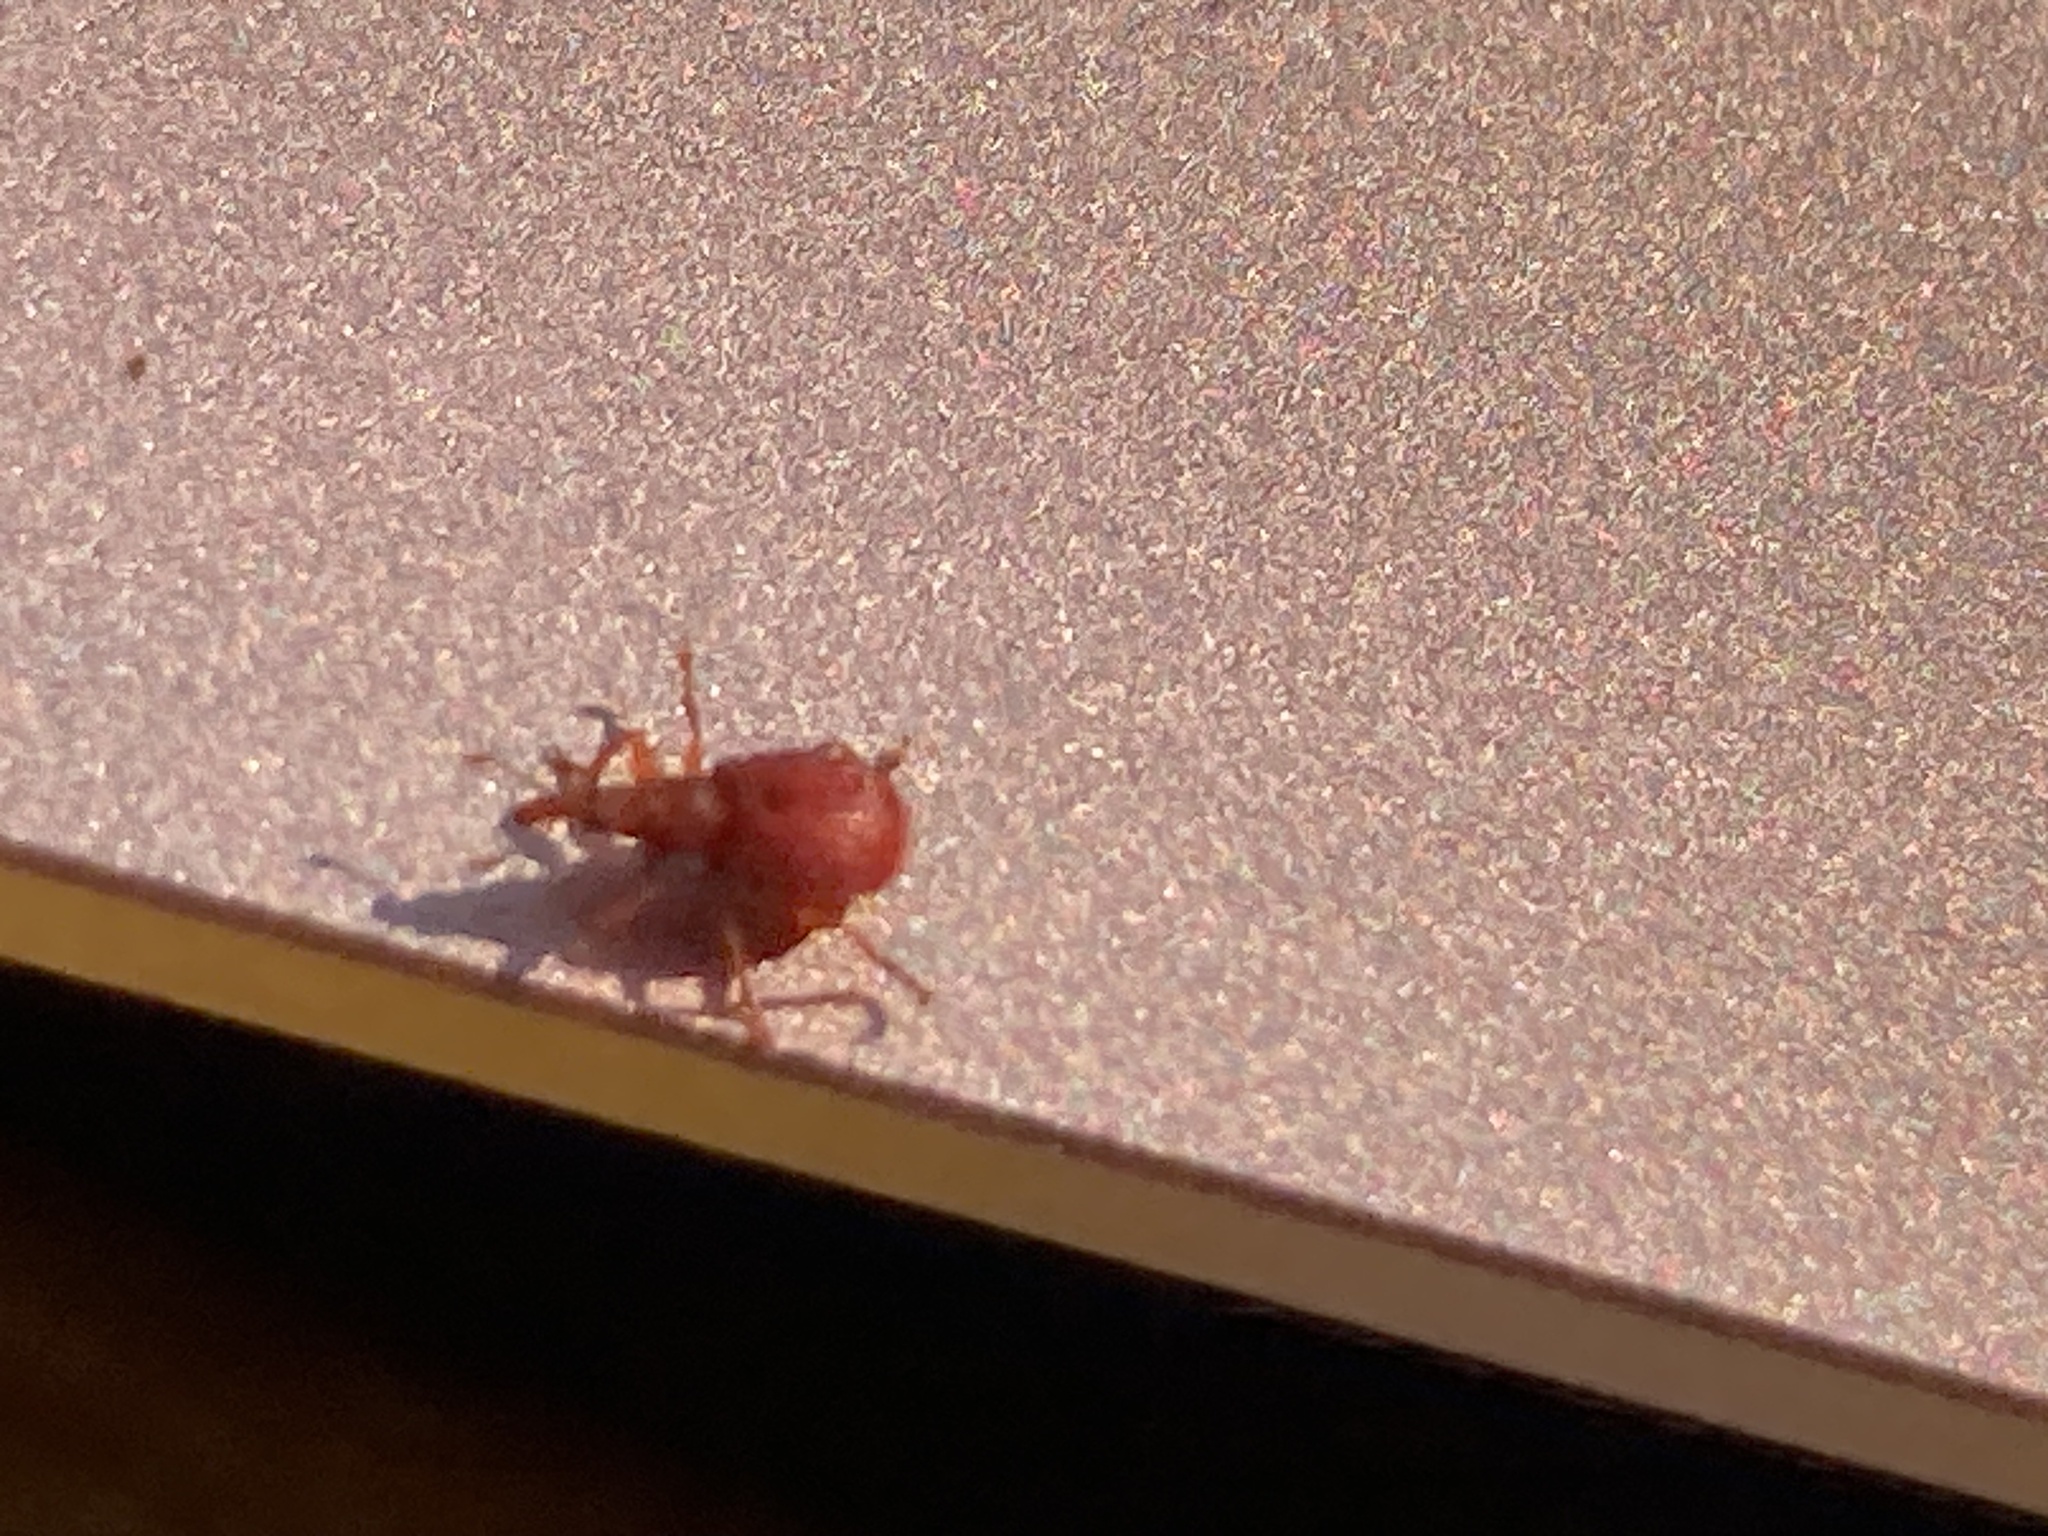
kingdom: Animalia
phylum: Arthropoda
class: Insecta
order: Coleoptera
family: Apionidae
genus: Apion
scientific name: Apion frumentarium
